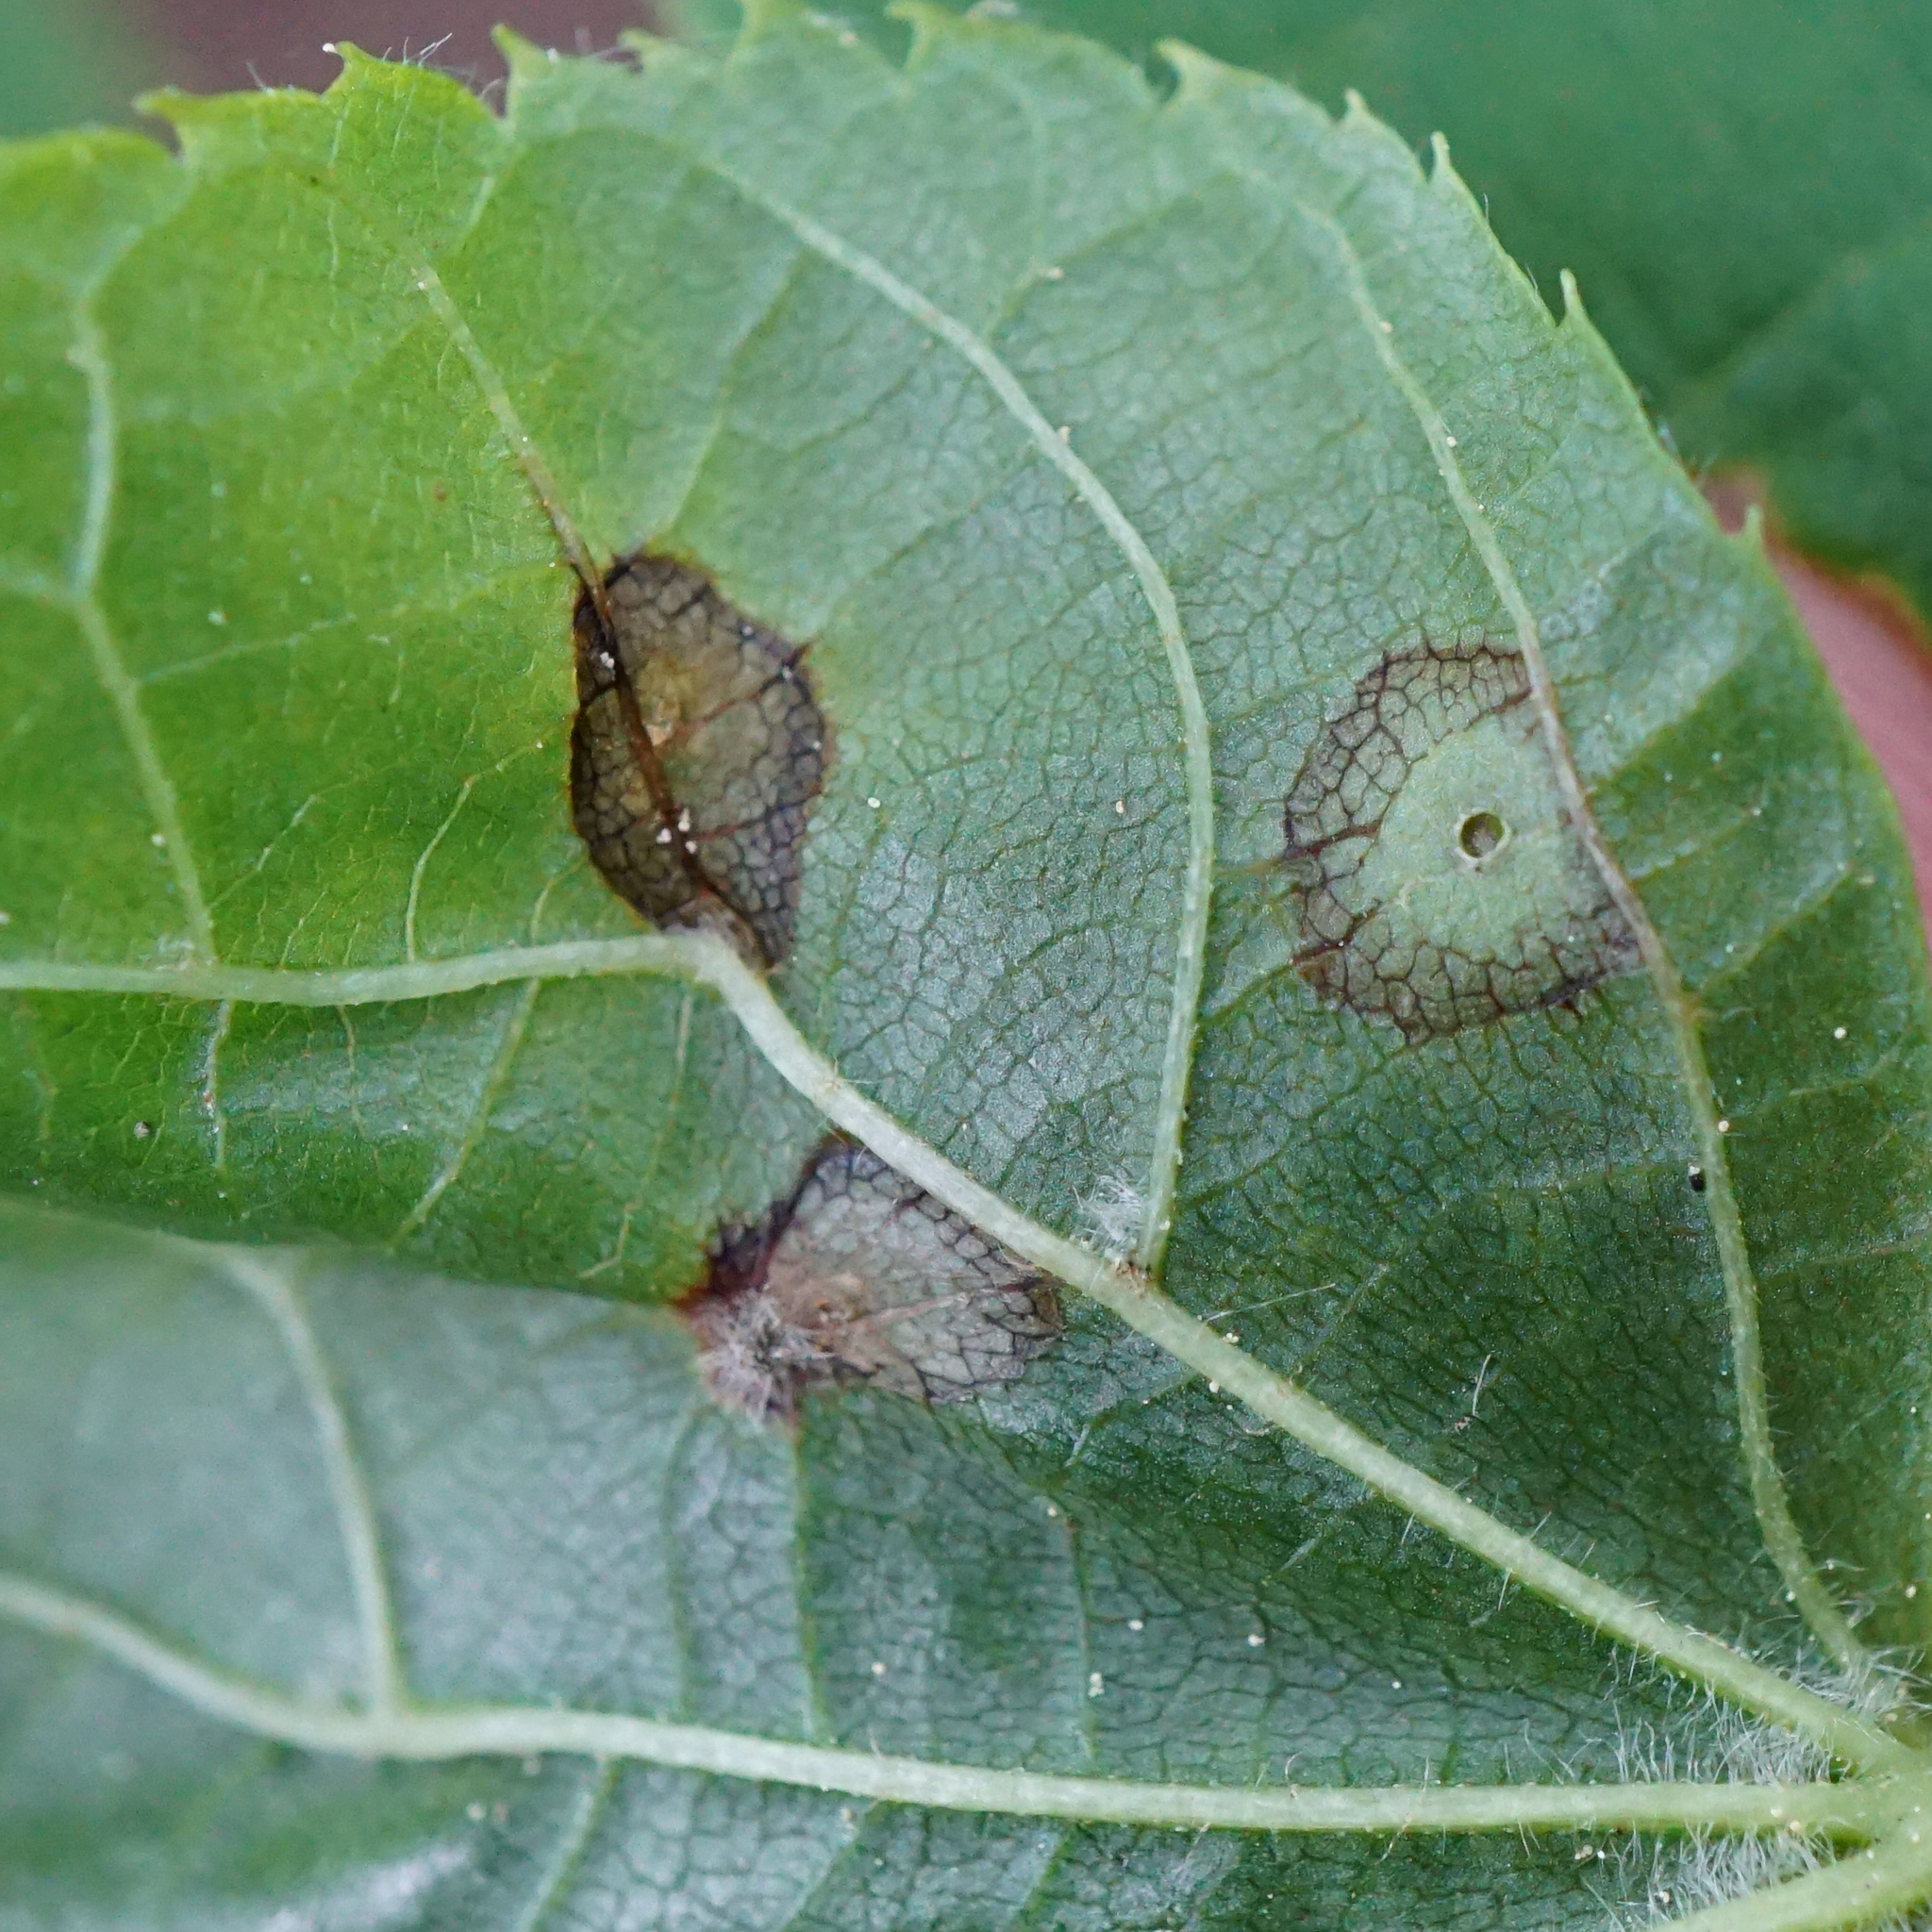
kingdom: Animalia
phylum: Arthropoda
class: Insecta
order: Diptera
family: Cecidomyiidae
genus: Physemocecis
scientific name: Physemocecis hartigi
